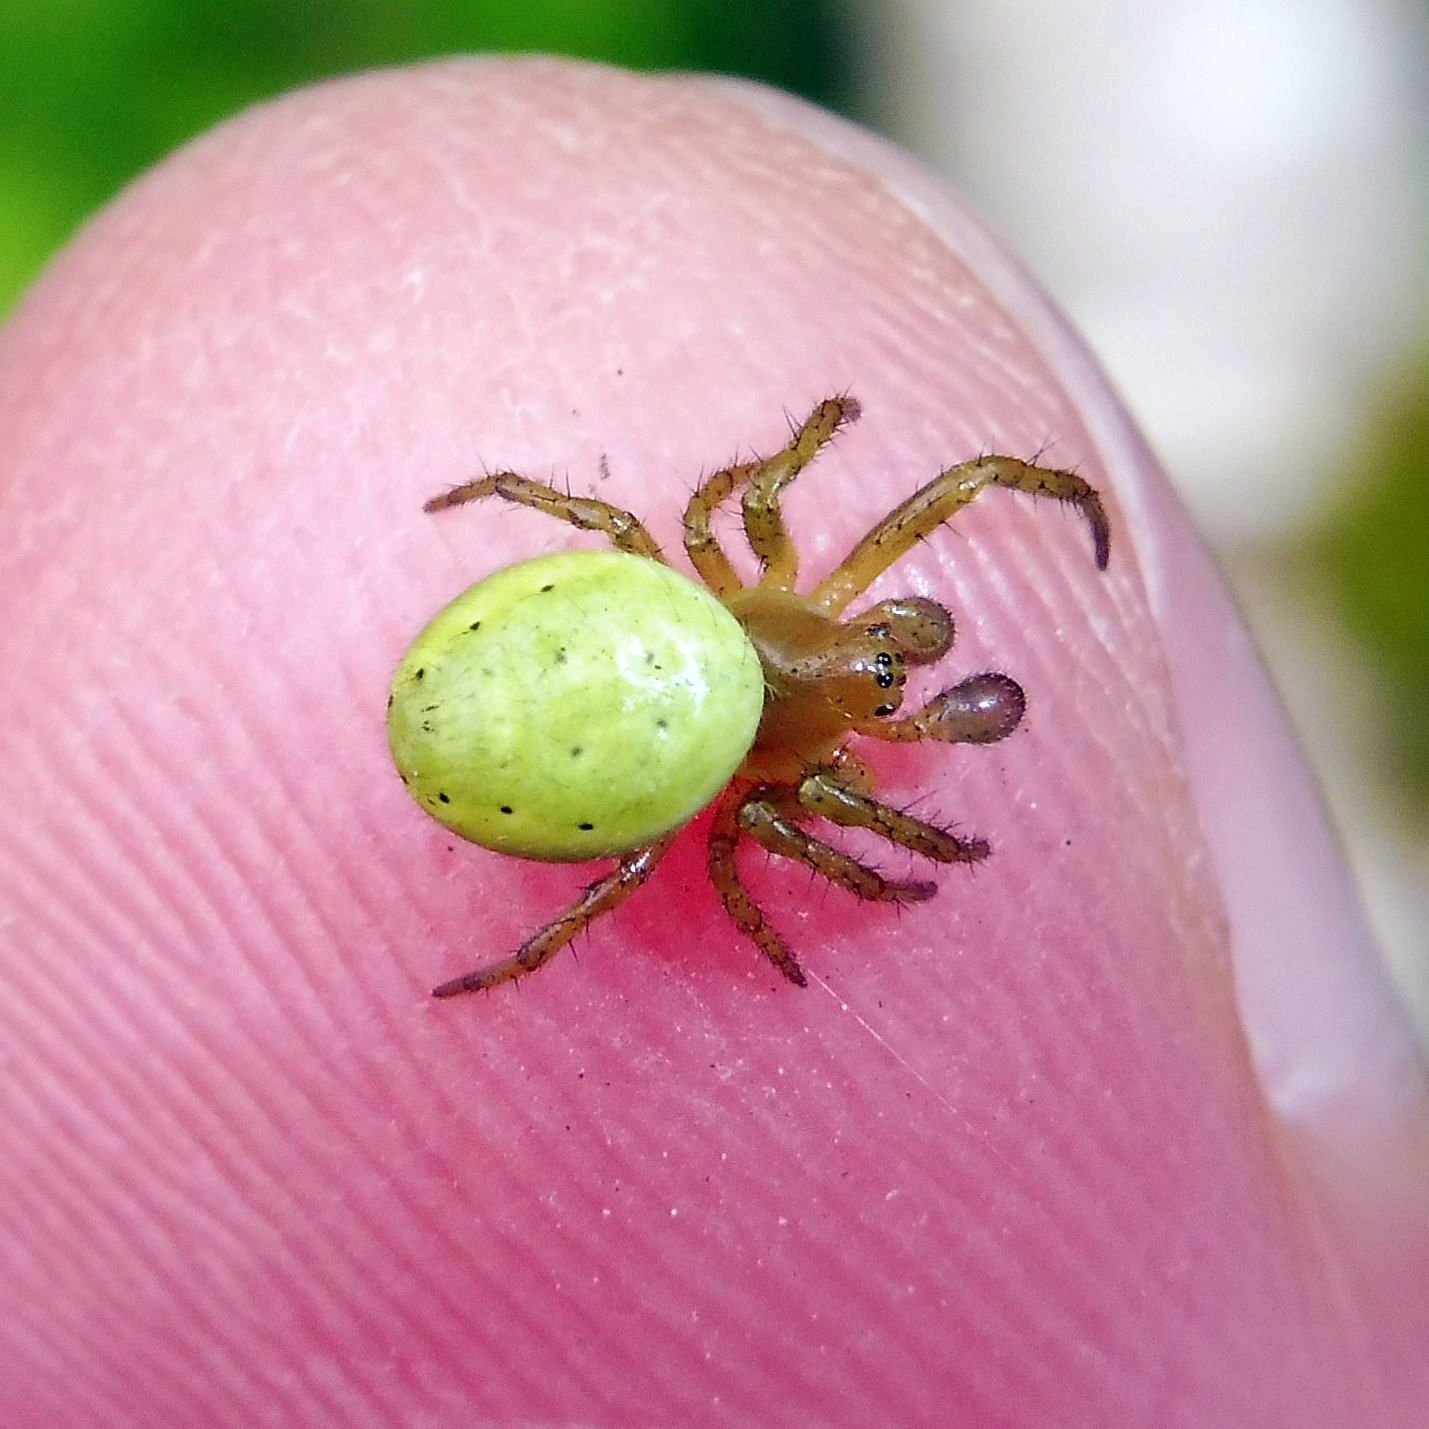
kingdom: Animalia
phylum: Arthropoda
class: Arachnida
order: Araneae
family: Araneidae
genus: Araniella
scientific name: Araniella
